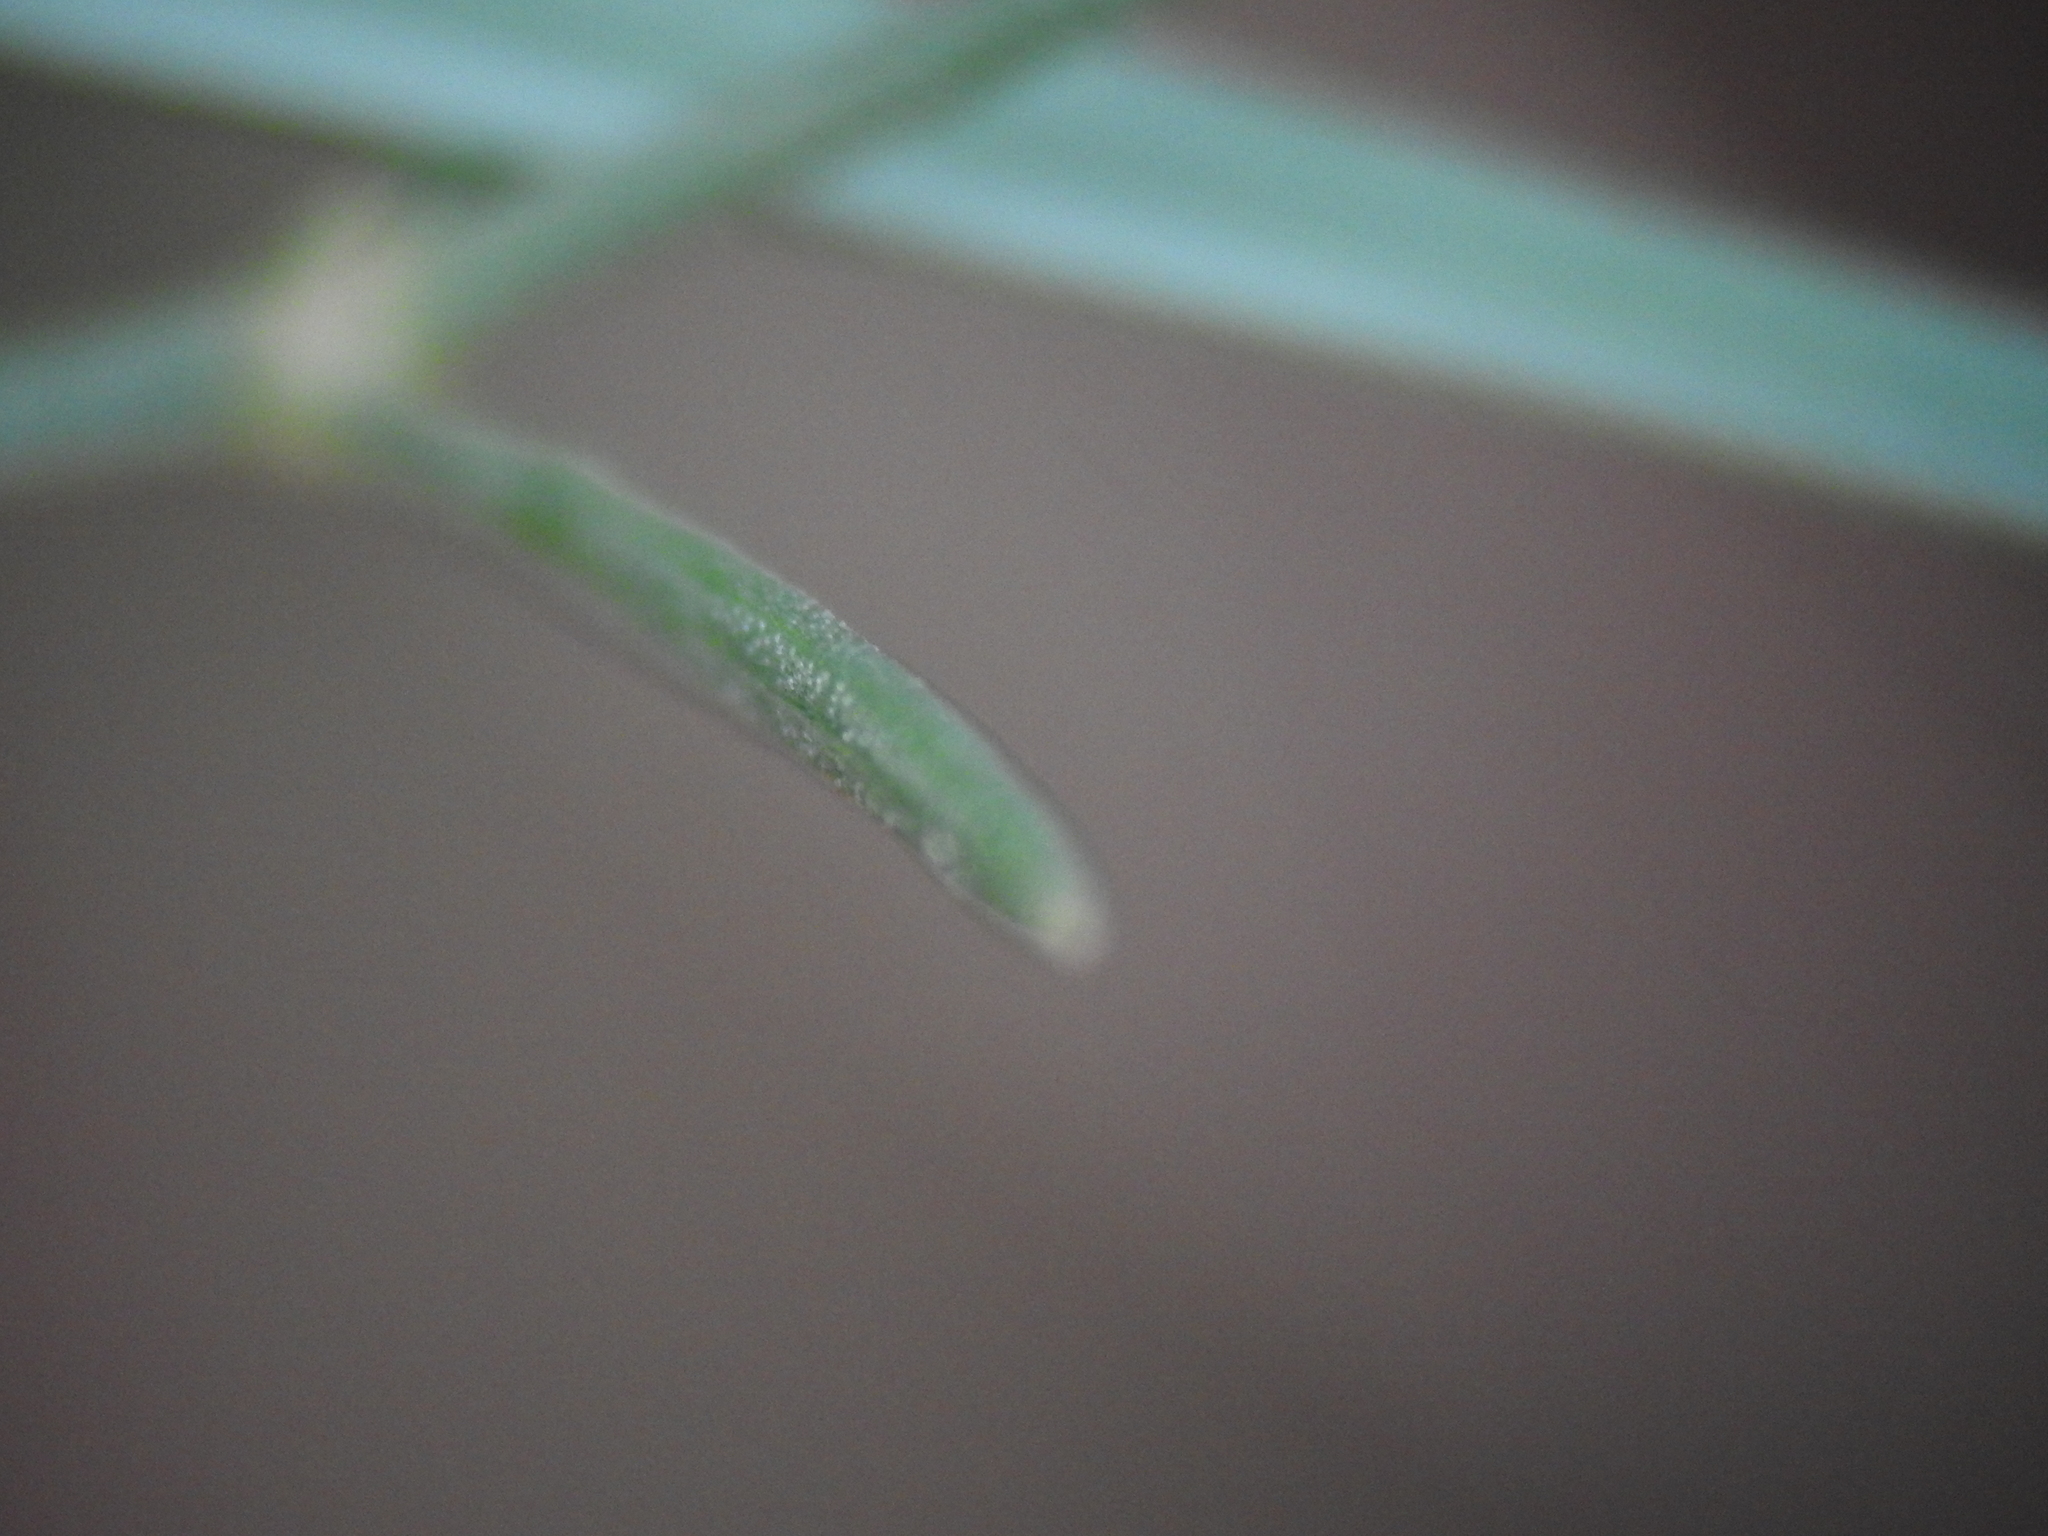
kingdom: Plantae
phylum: Tracheophyta
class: Magnoliopsida
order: Gentianales
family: Rubiaceae
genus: Cynanchica
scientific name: Cynanchica pyrenaica
